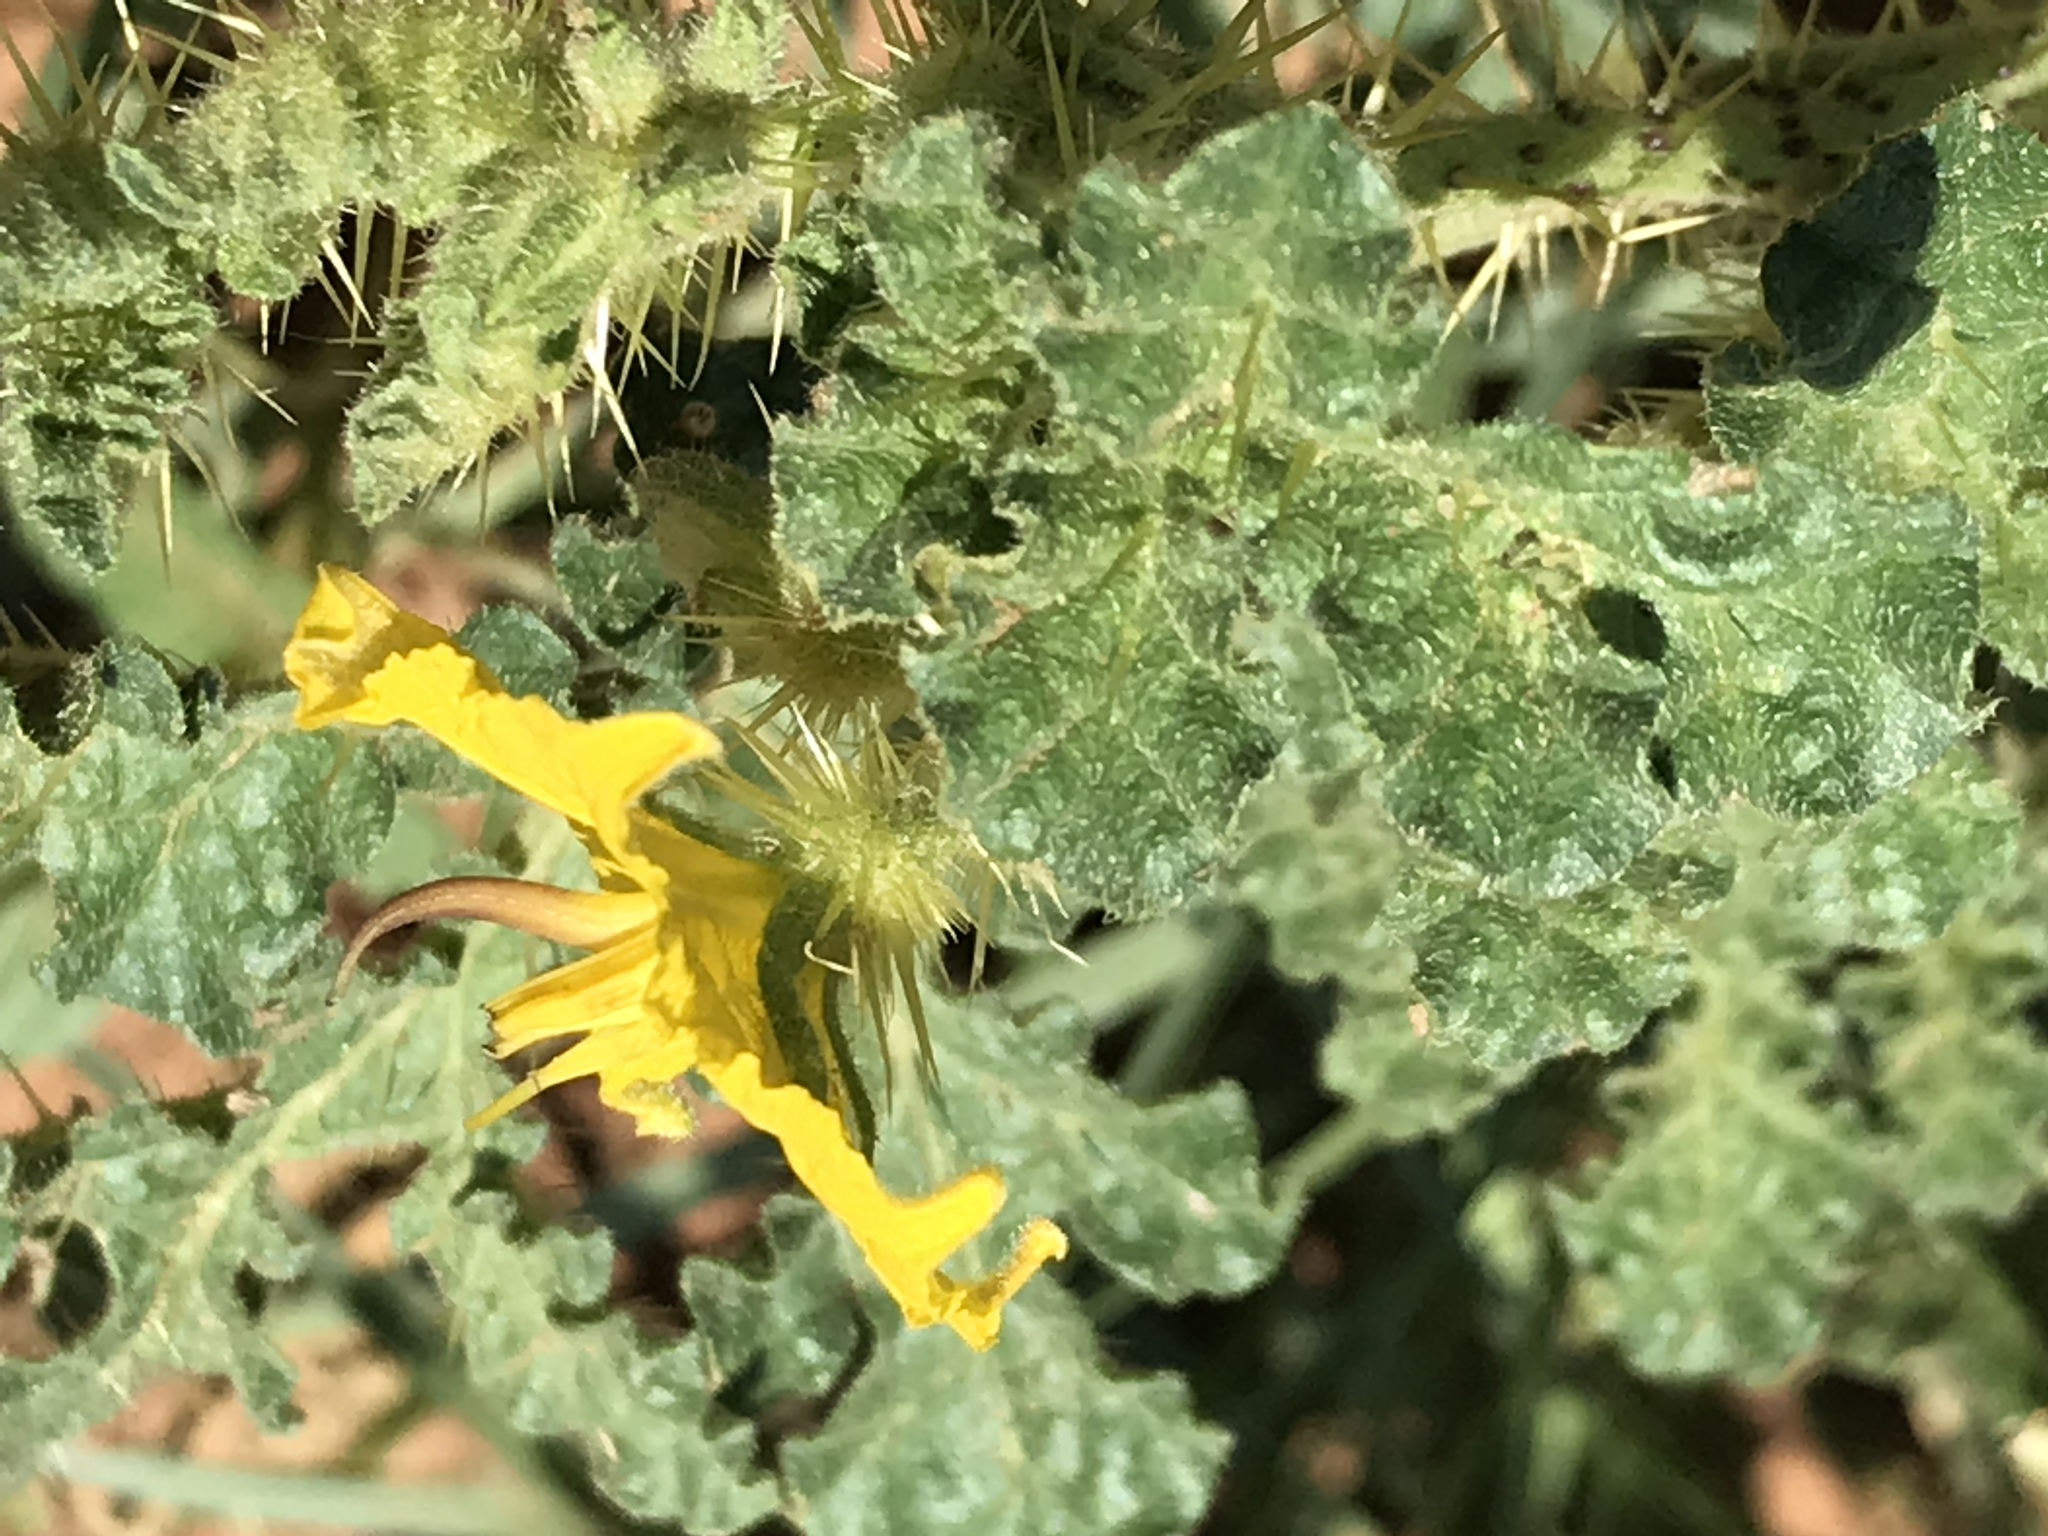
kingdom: Plantae
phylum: Tracheophyta
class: Magnoliopsida
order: Solanales
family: Solanaceae
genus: Solanum
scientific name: Solanum angustifolium
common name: Buffalobur nightshade
